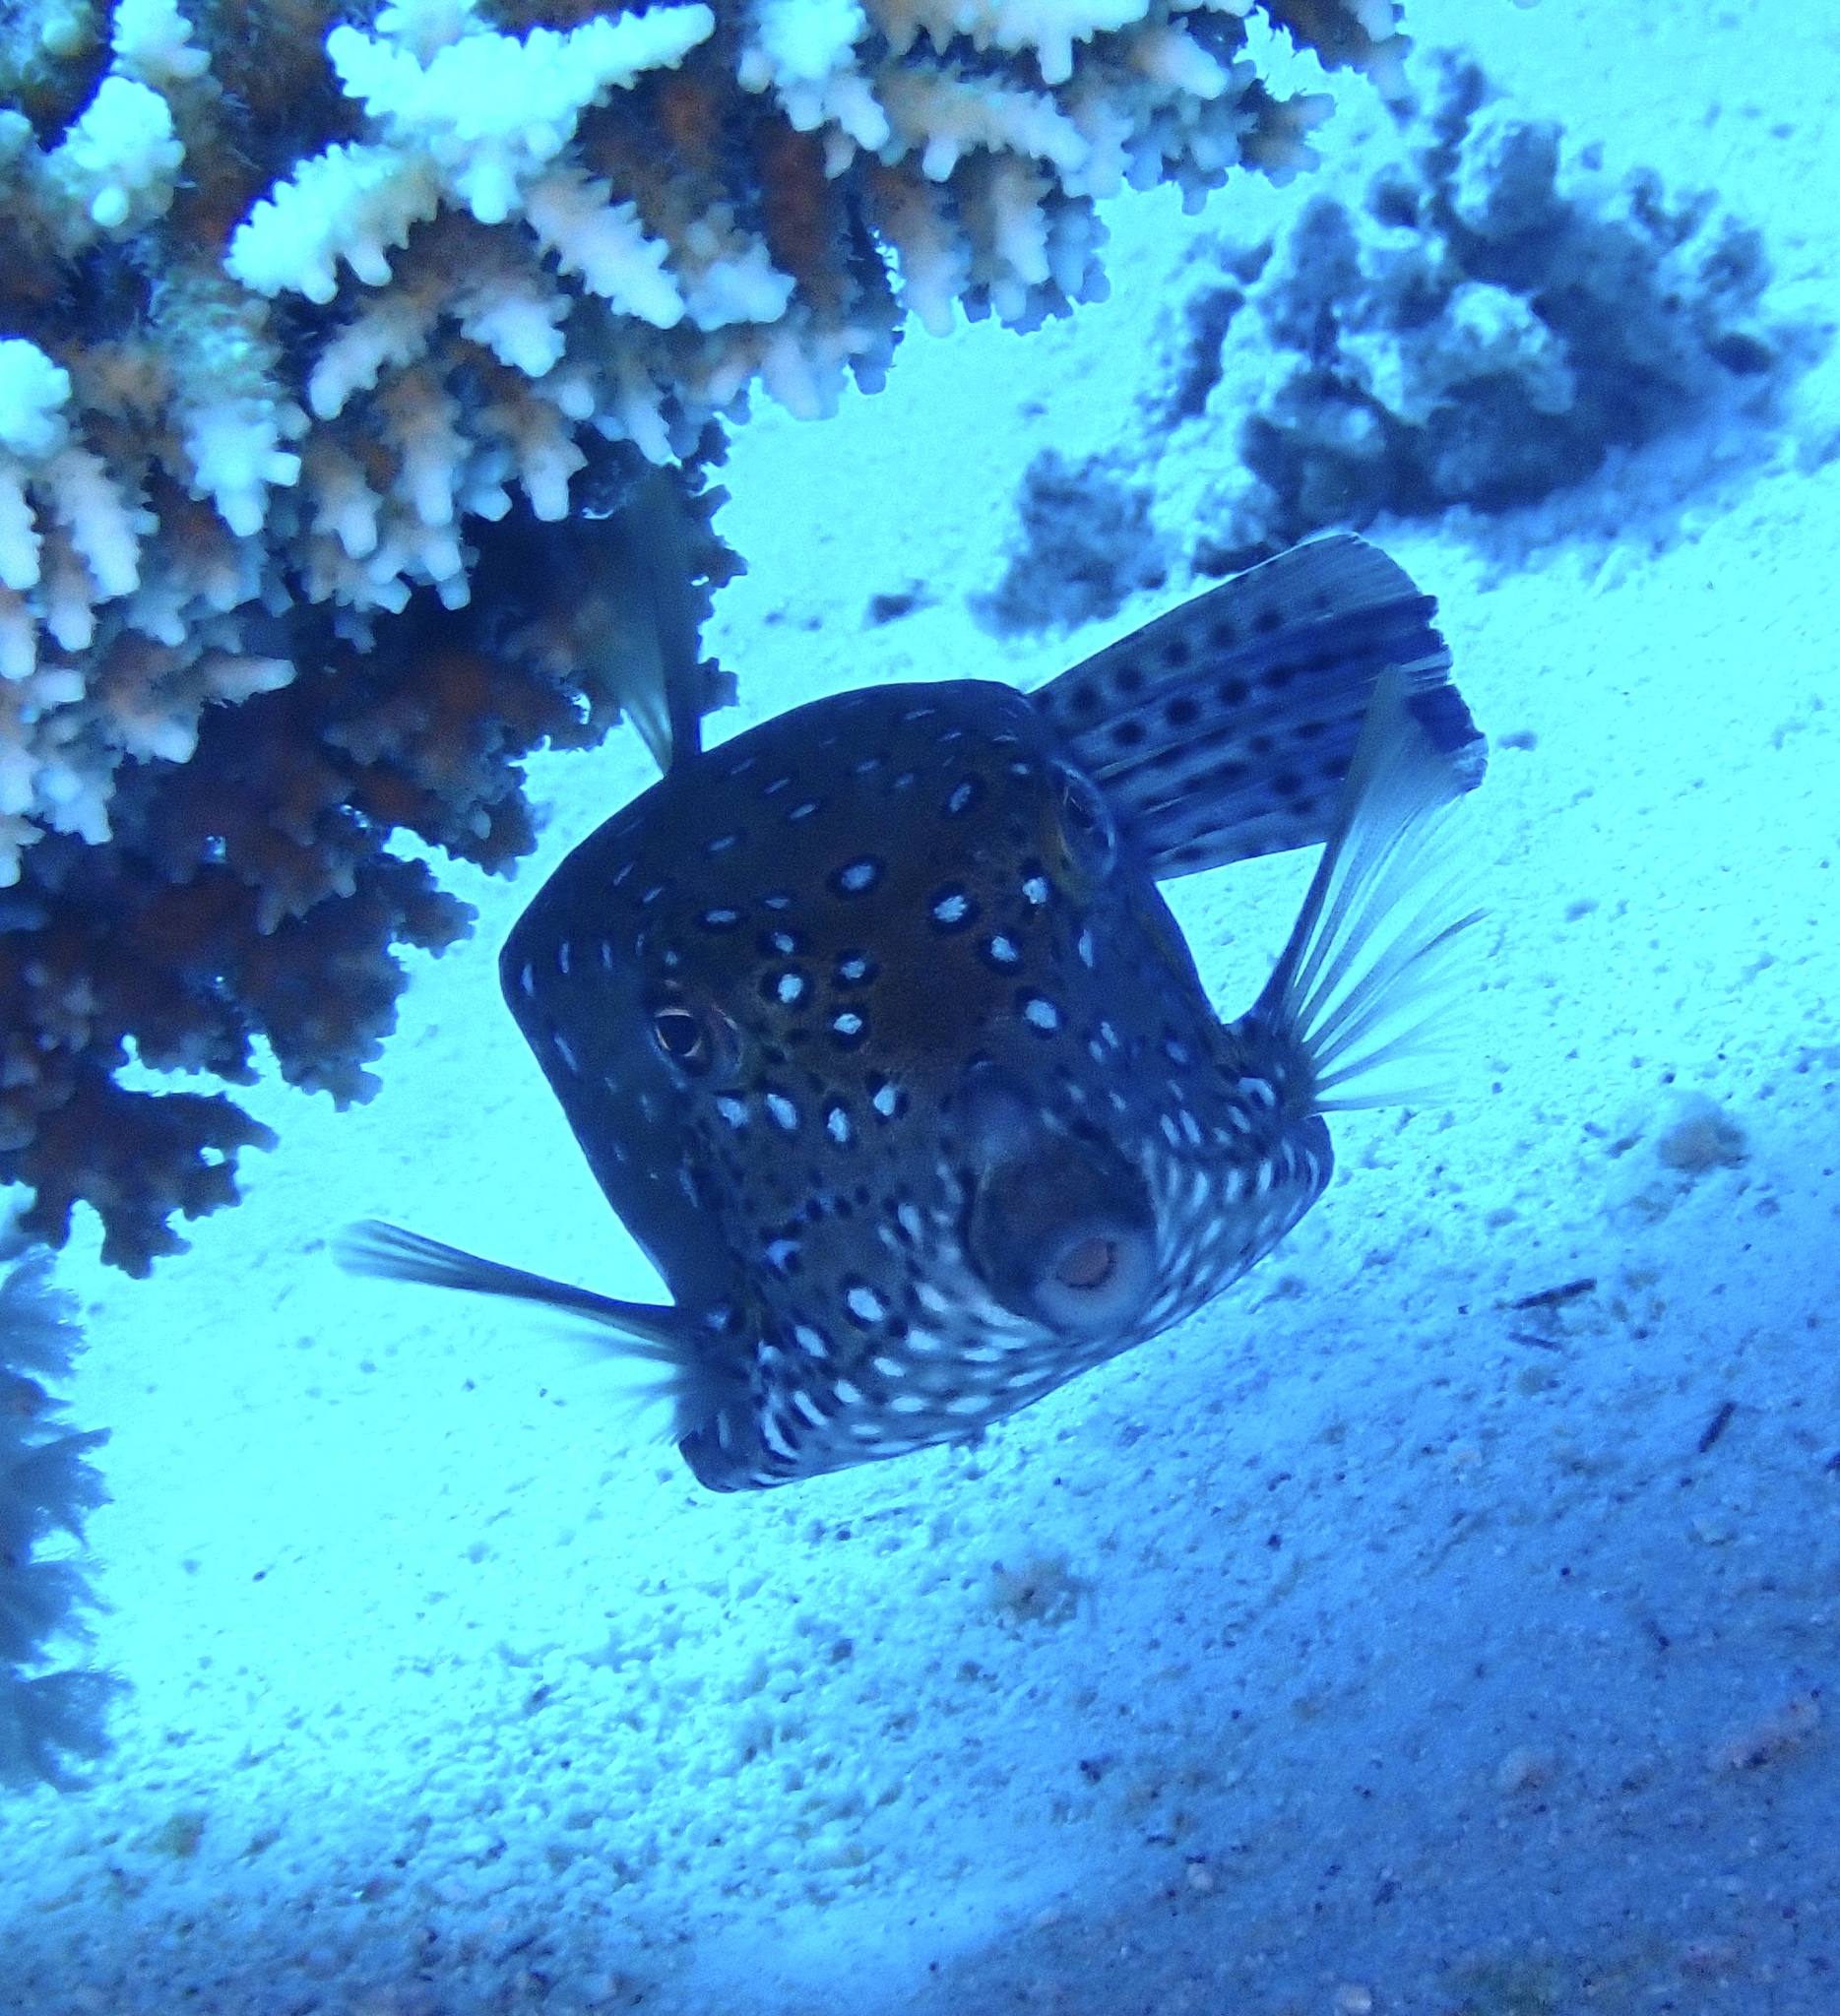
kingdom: Animalia
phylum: Chordata
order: Tetraodontiformes
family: Ostraciidae
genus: Ostracion
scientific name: Ostracion cubicus
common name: Cube trunkfish
